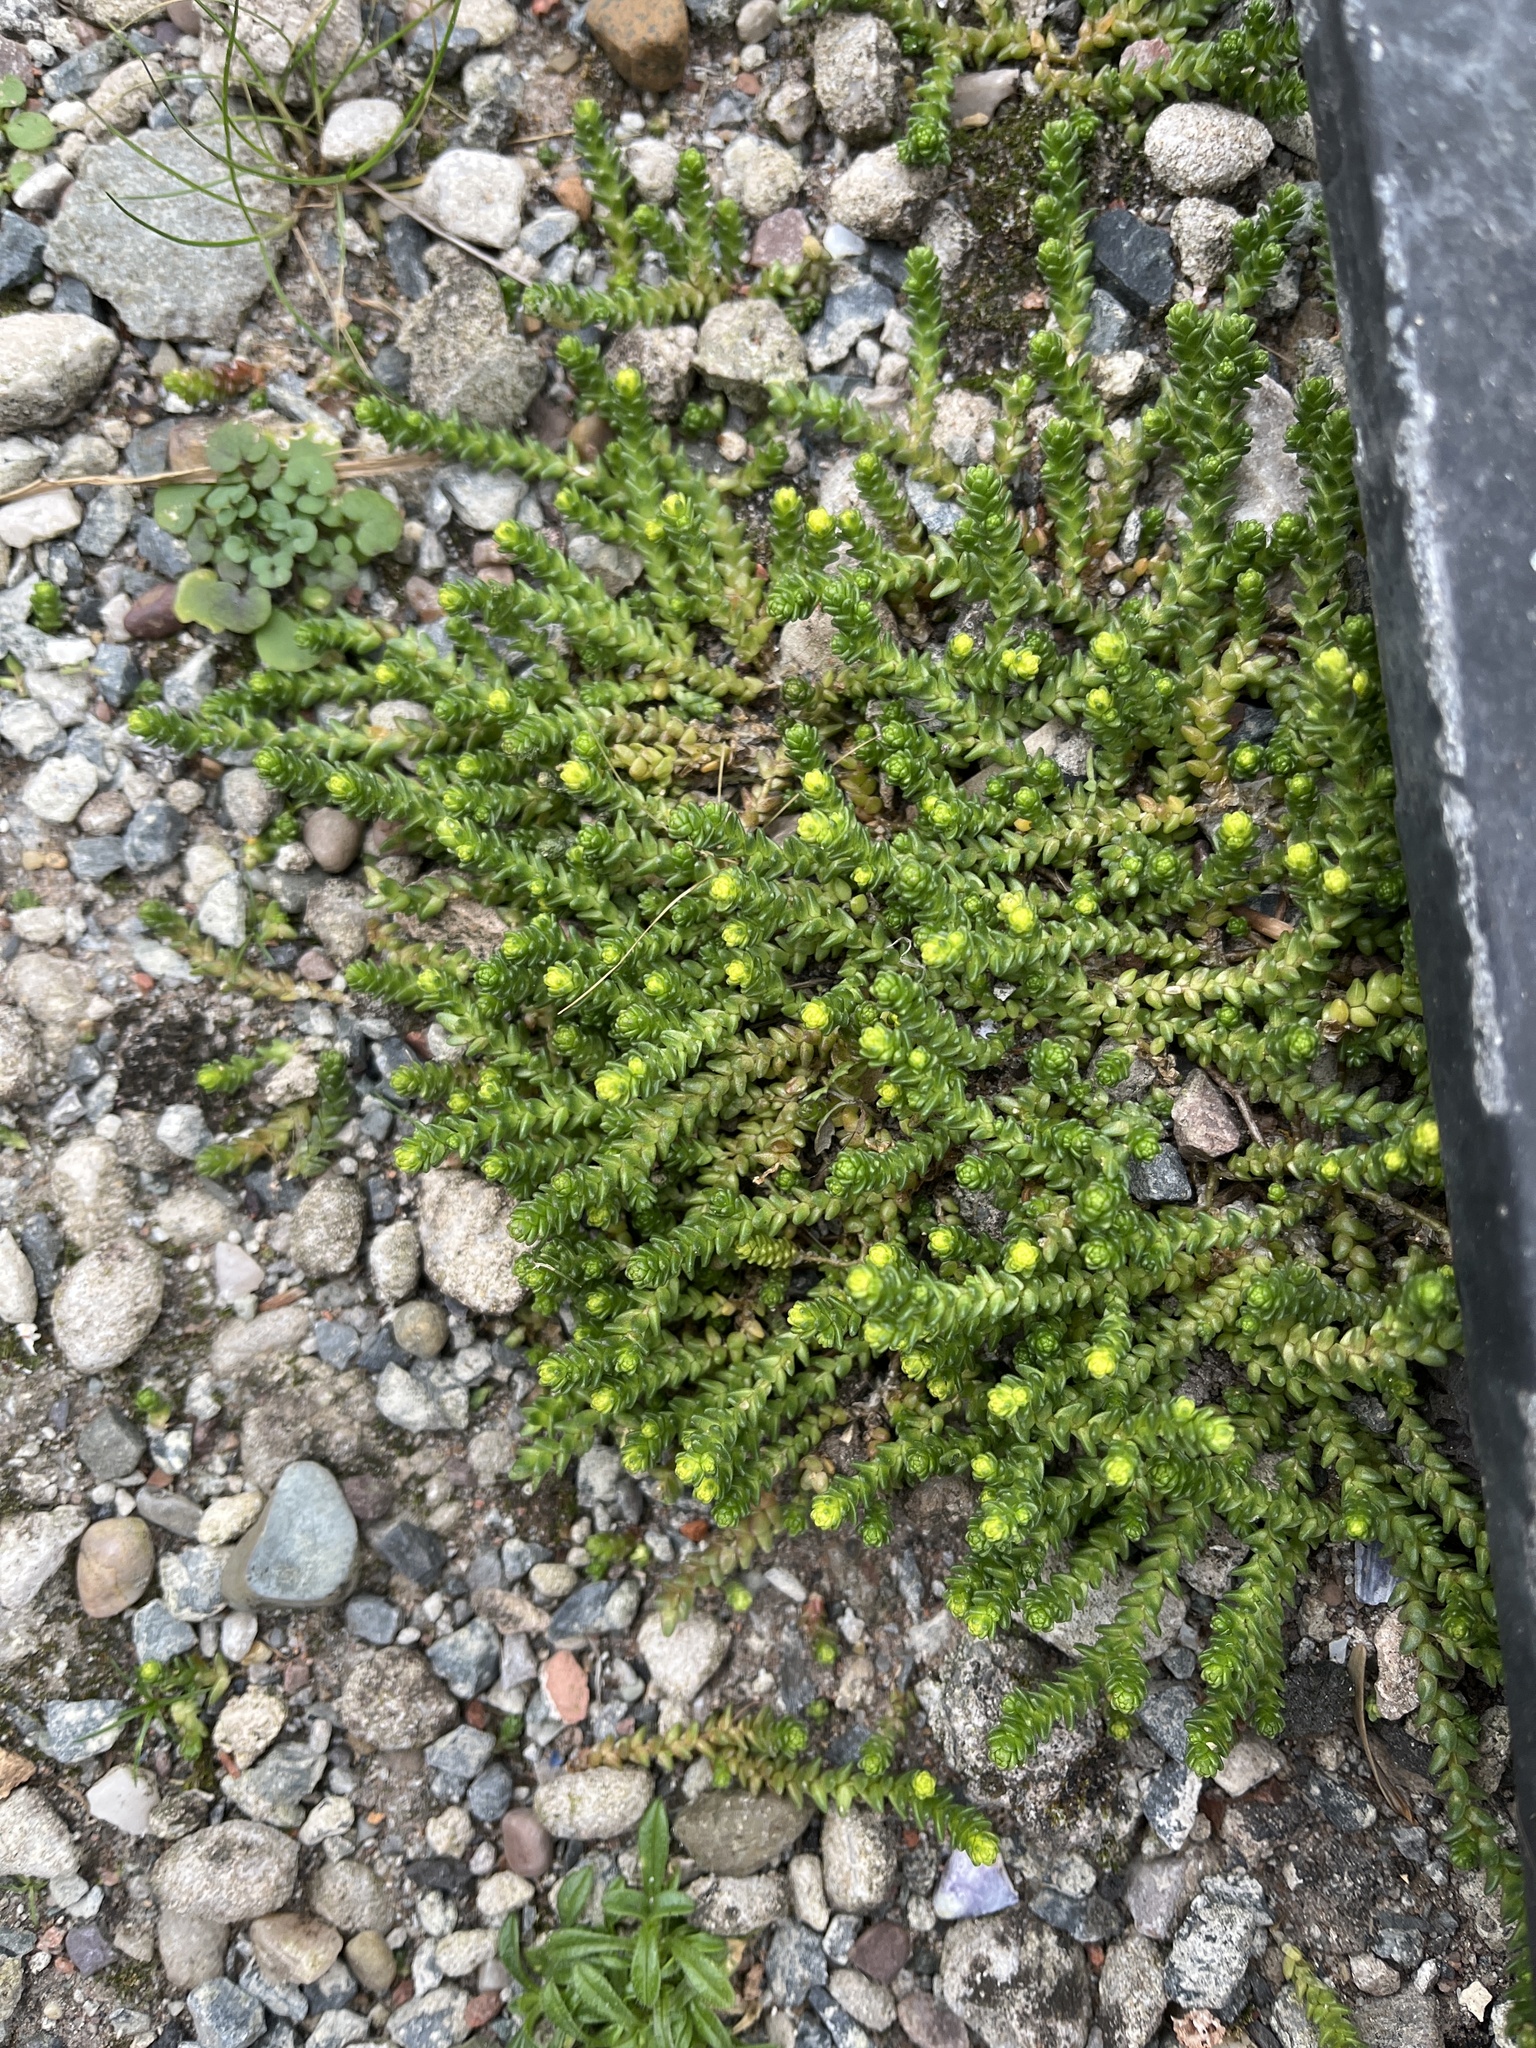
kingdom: Plantae
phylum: Tracheophyta
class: Magnoliopsida
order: Saxifragales
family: Crassulaceae
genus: Sedum
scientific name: Sedum acre
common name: Biting stonecrop
